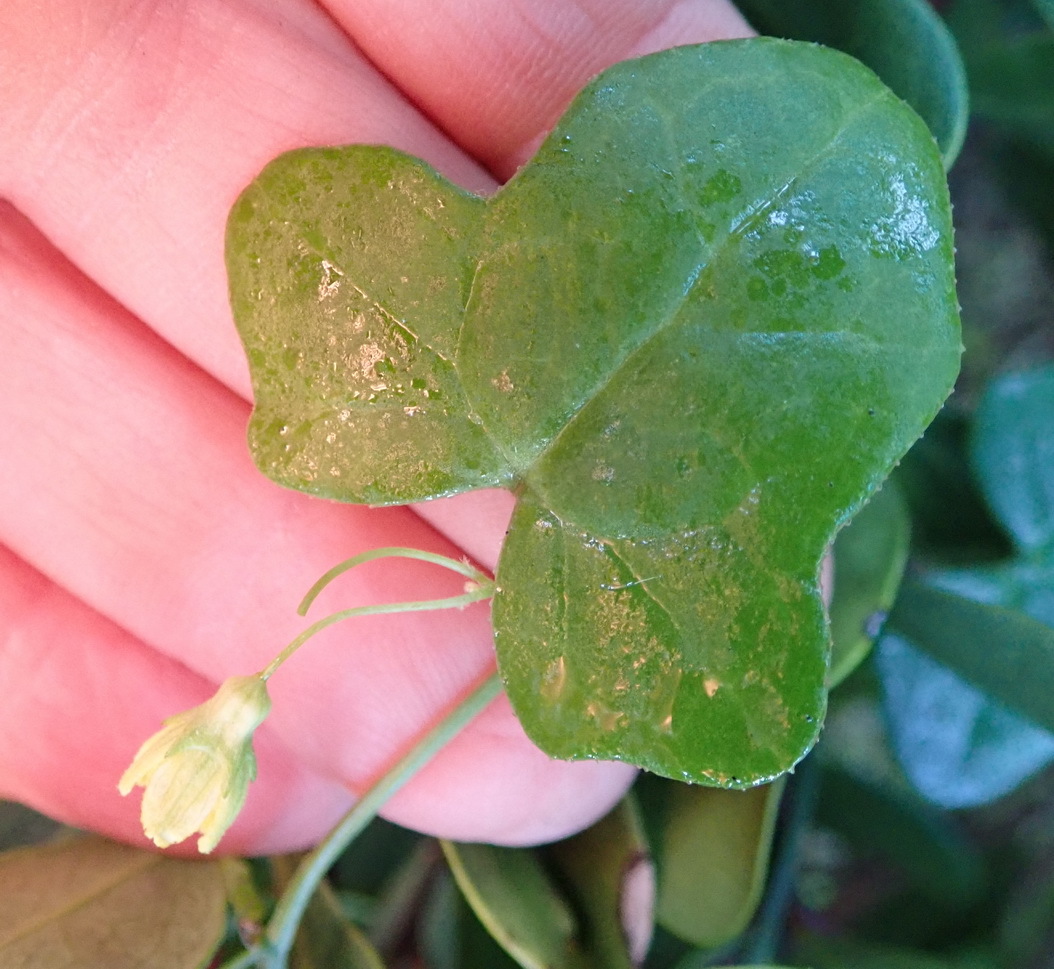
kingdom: Plantae
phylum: Tracheophyta
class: Magnoliopsida
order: Cucurbitales
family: Cucurbitaceae
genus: Kedrostis
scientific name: Kedrostis nana
